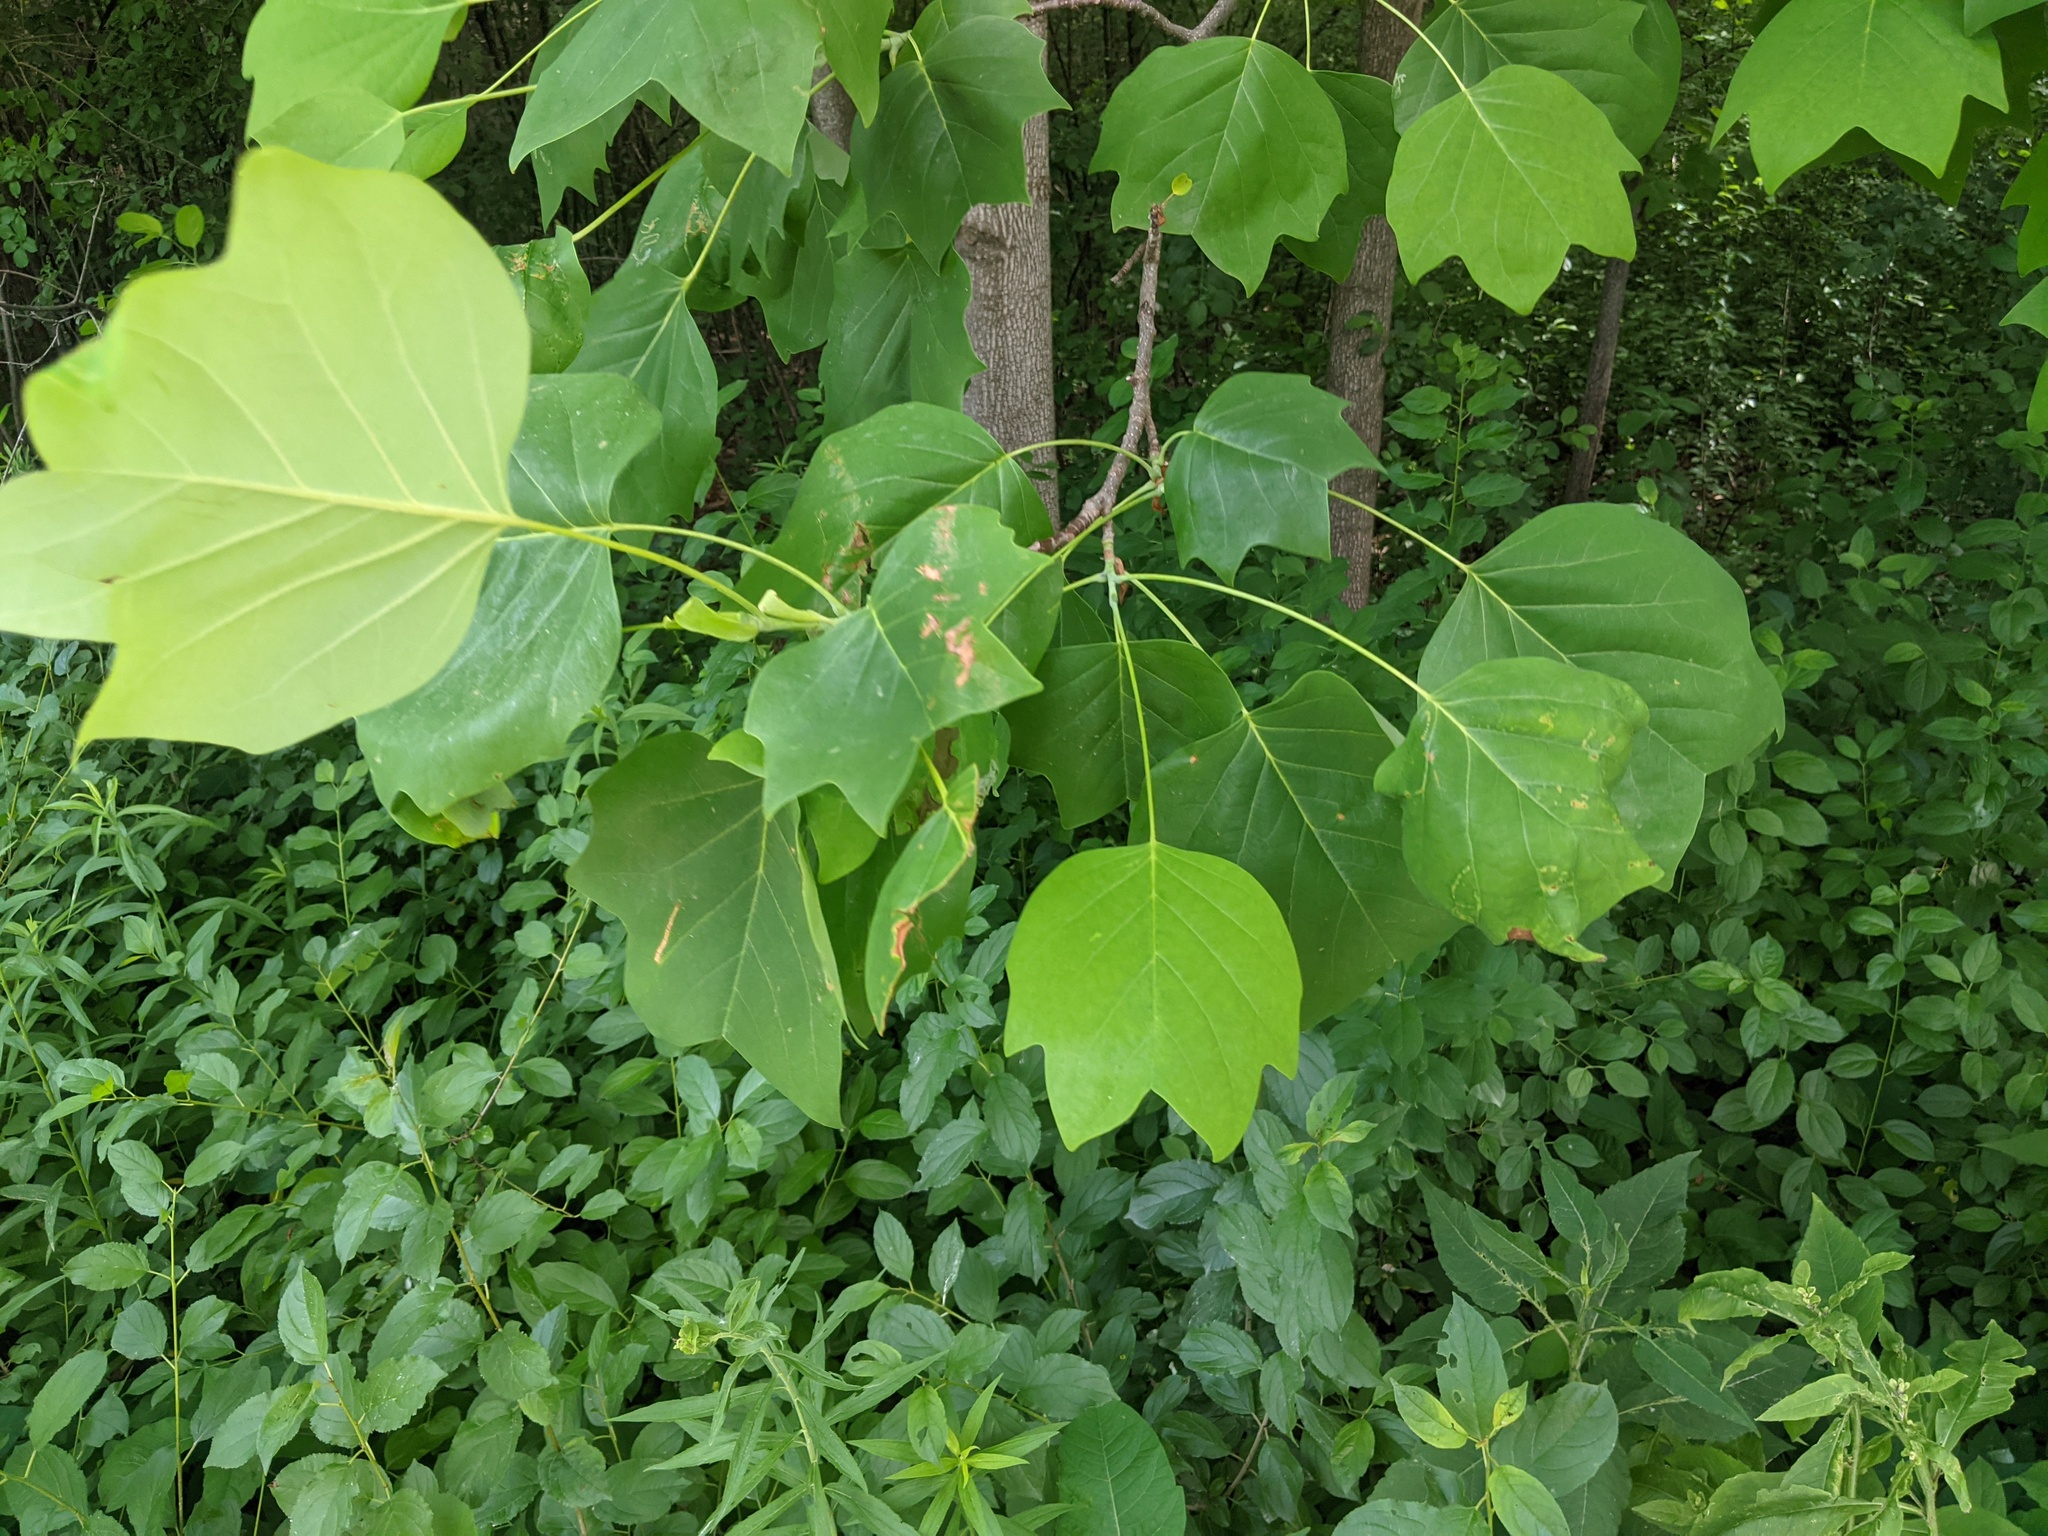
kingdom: Plantae
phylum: Tracheophyta
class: Magnoliopsida
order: Magnoliales
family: Magnoliaceae
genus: Liriodendron
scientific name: Liriodendron tulipifera
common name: Tulip tree
